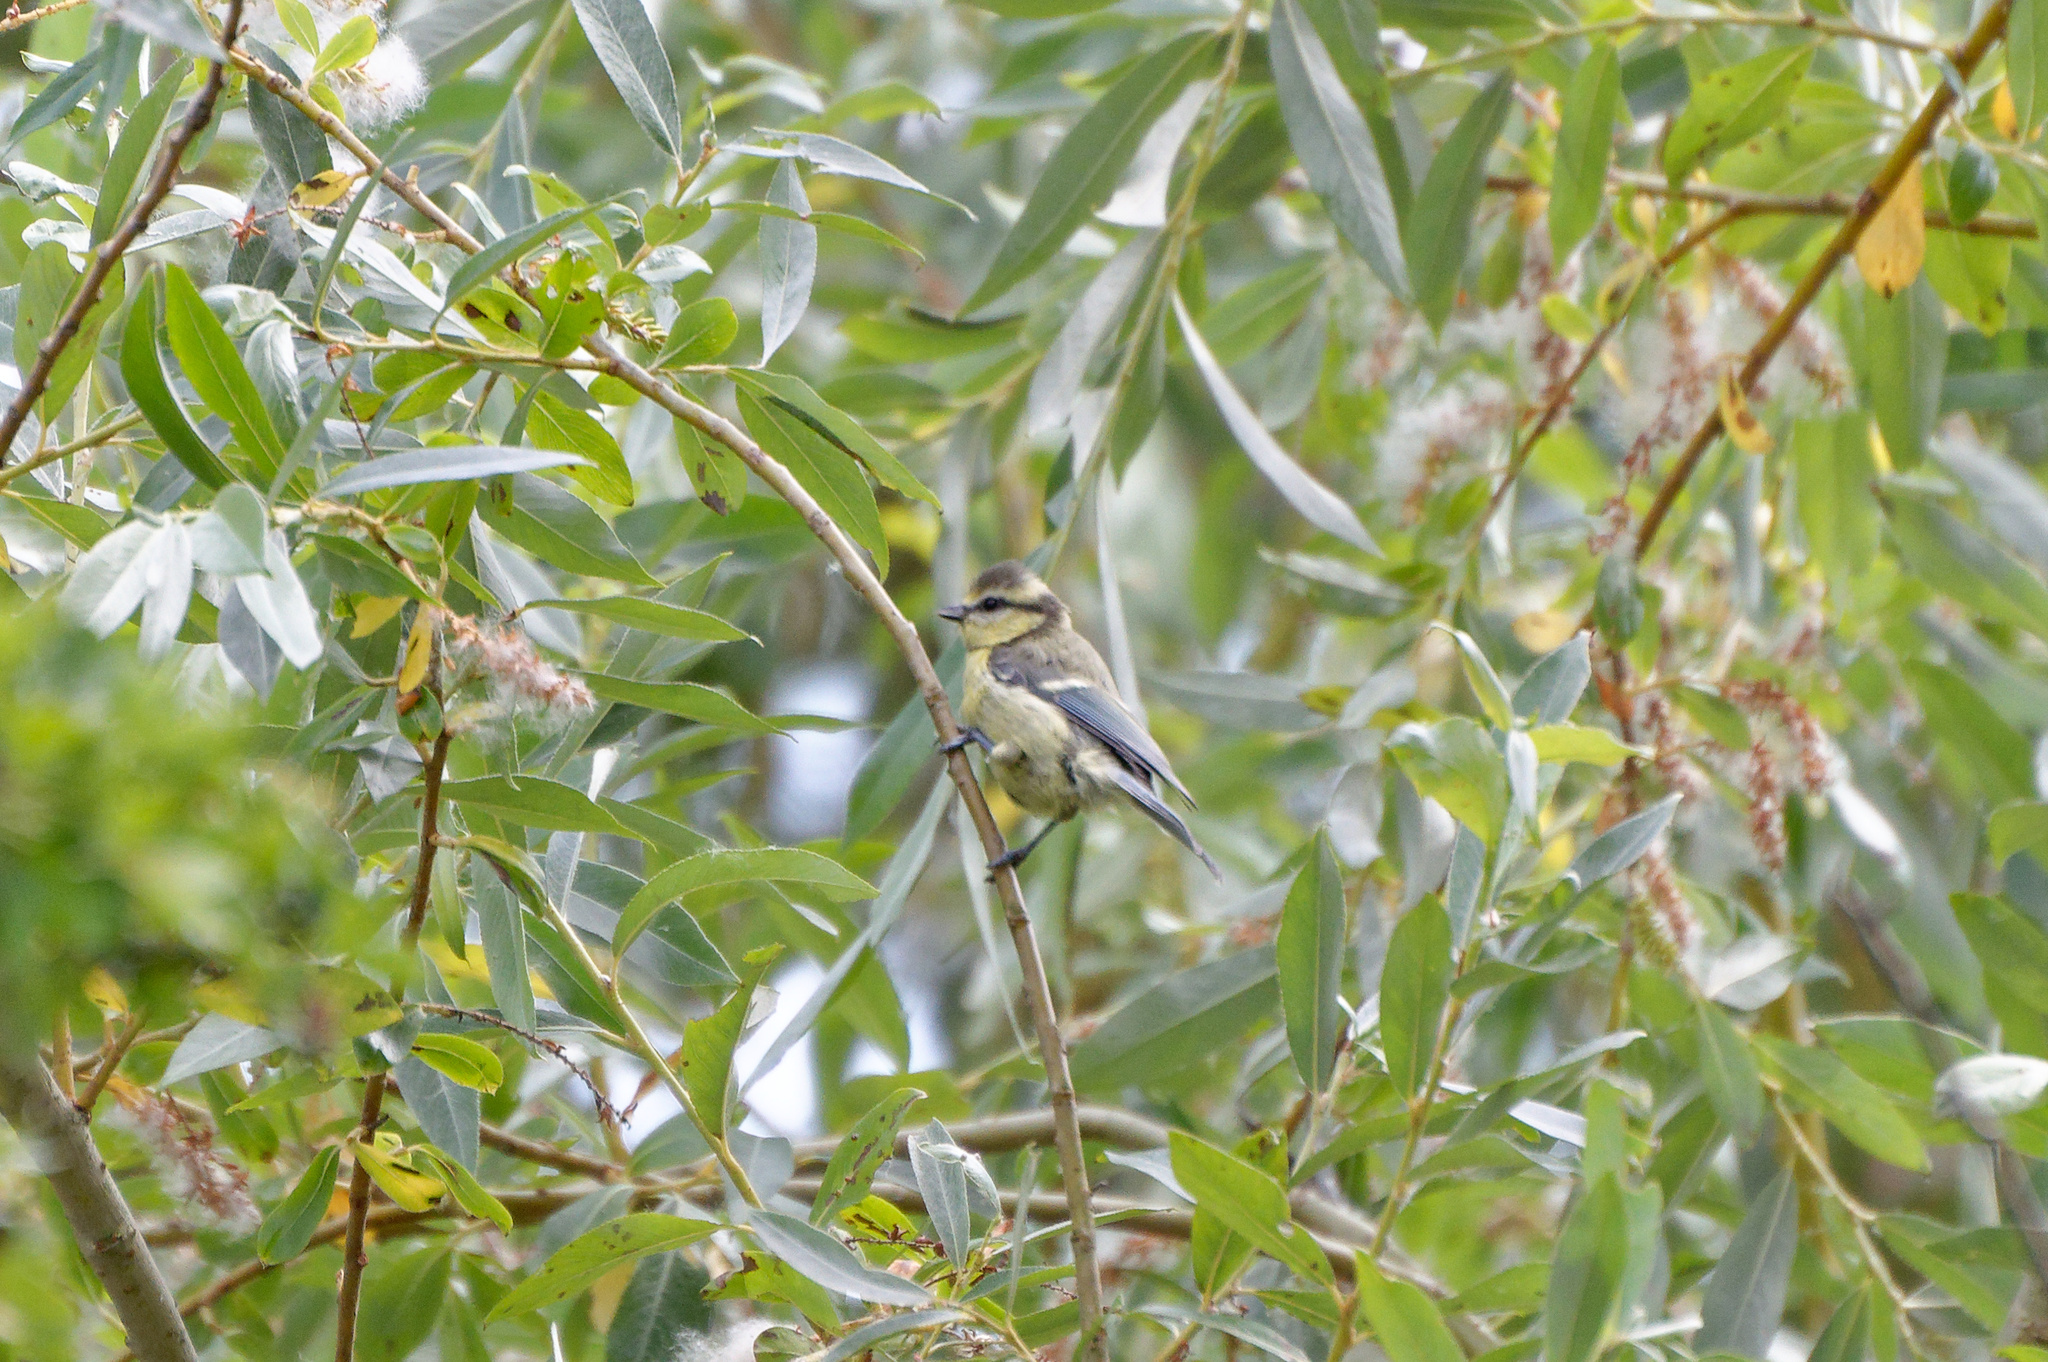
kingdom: Animalia
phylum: Chordata
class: Aves
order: Passeriformes
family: Paridae
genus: Cyanistes
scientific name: Cyanistes caeruleus
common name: Eurasian blue tit
